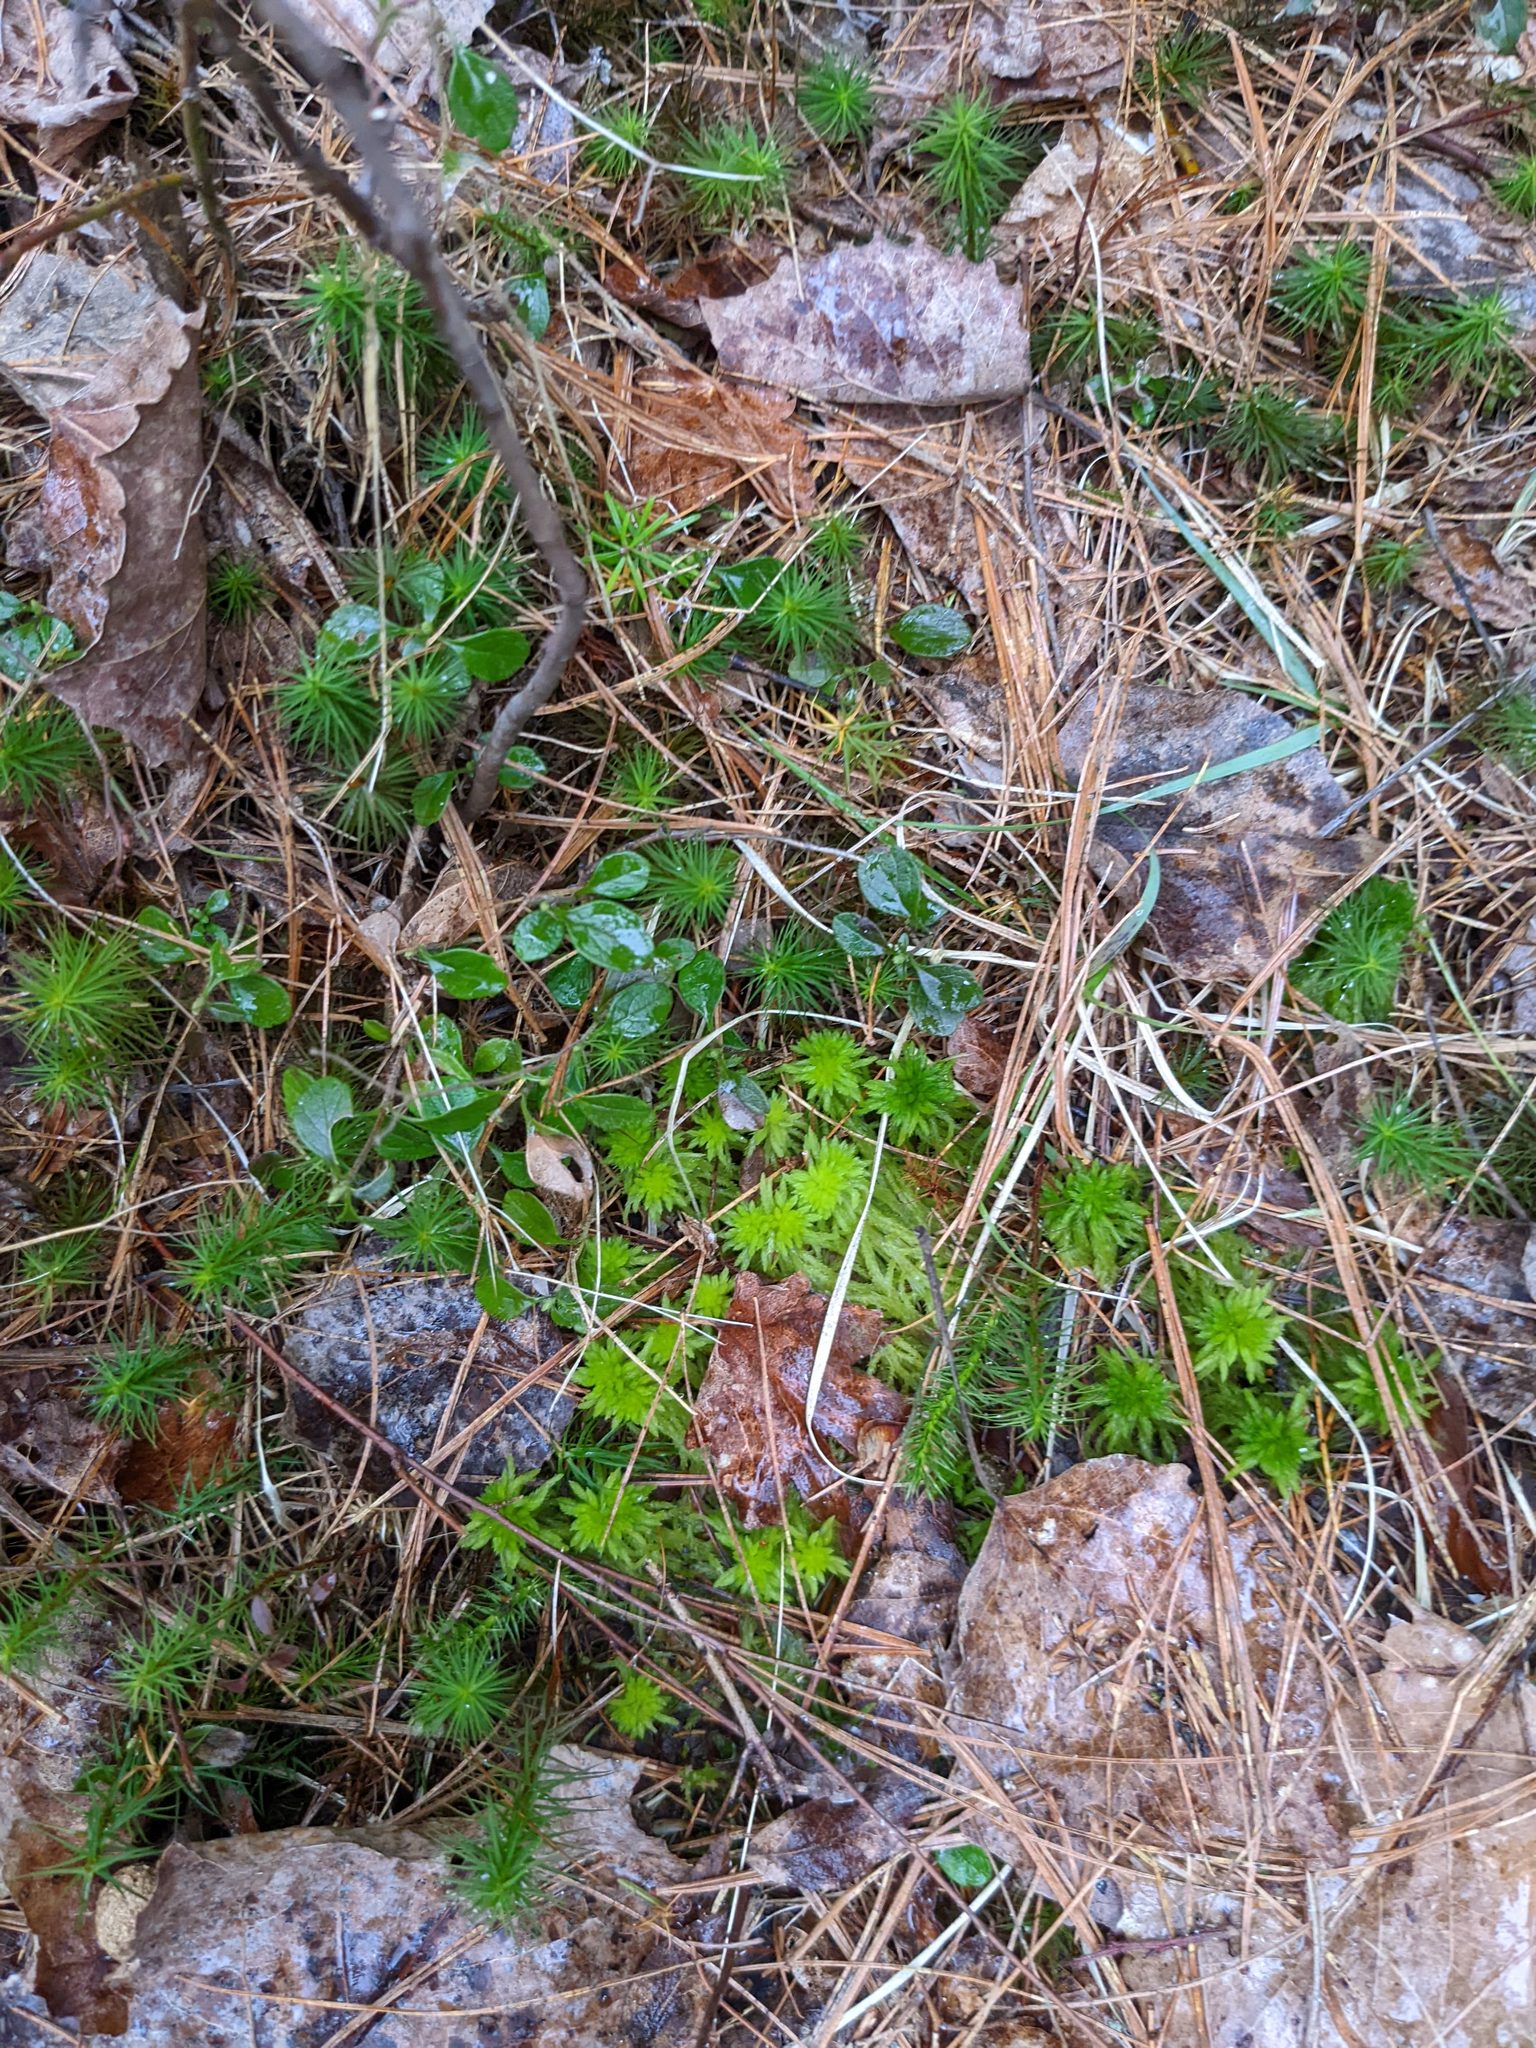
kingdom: Plantae
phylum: Tracheophyta
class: Pinopsida
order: Pinales
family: Pinaceae
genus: Pinus
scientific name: Pinus strobus
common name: Weymouth pine
